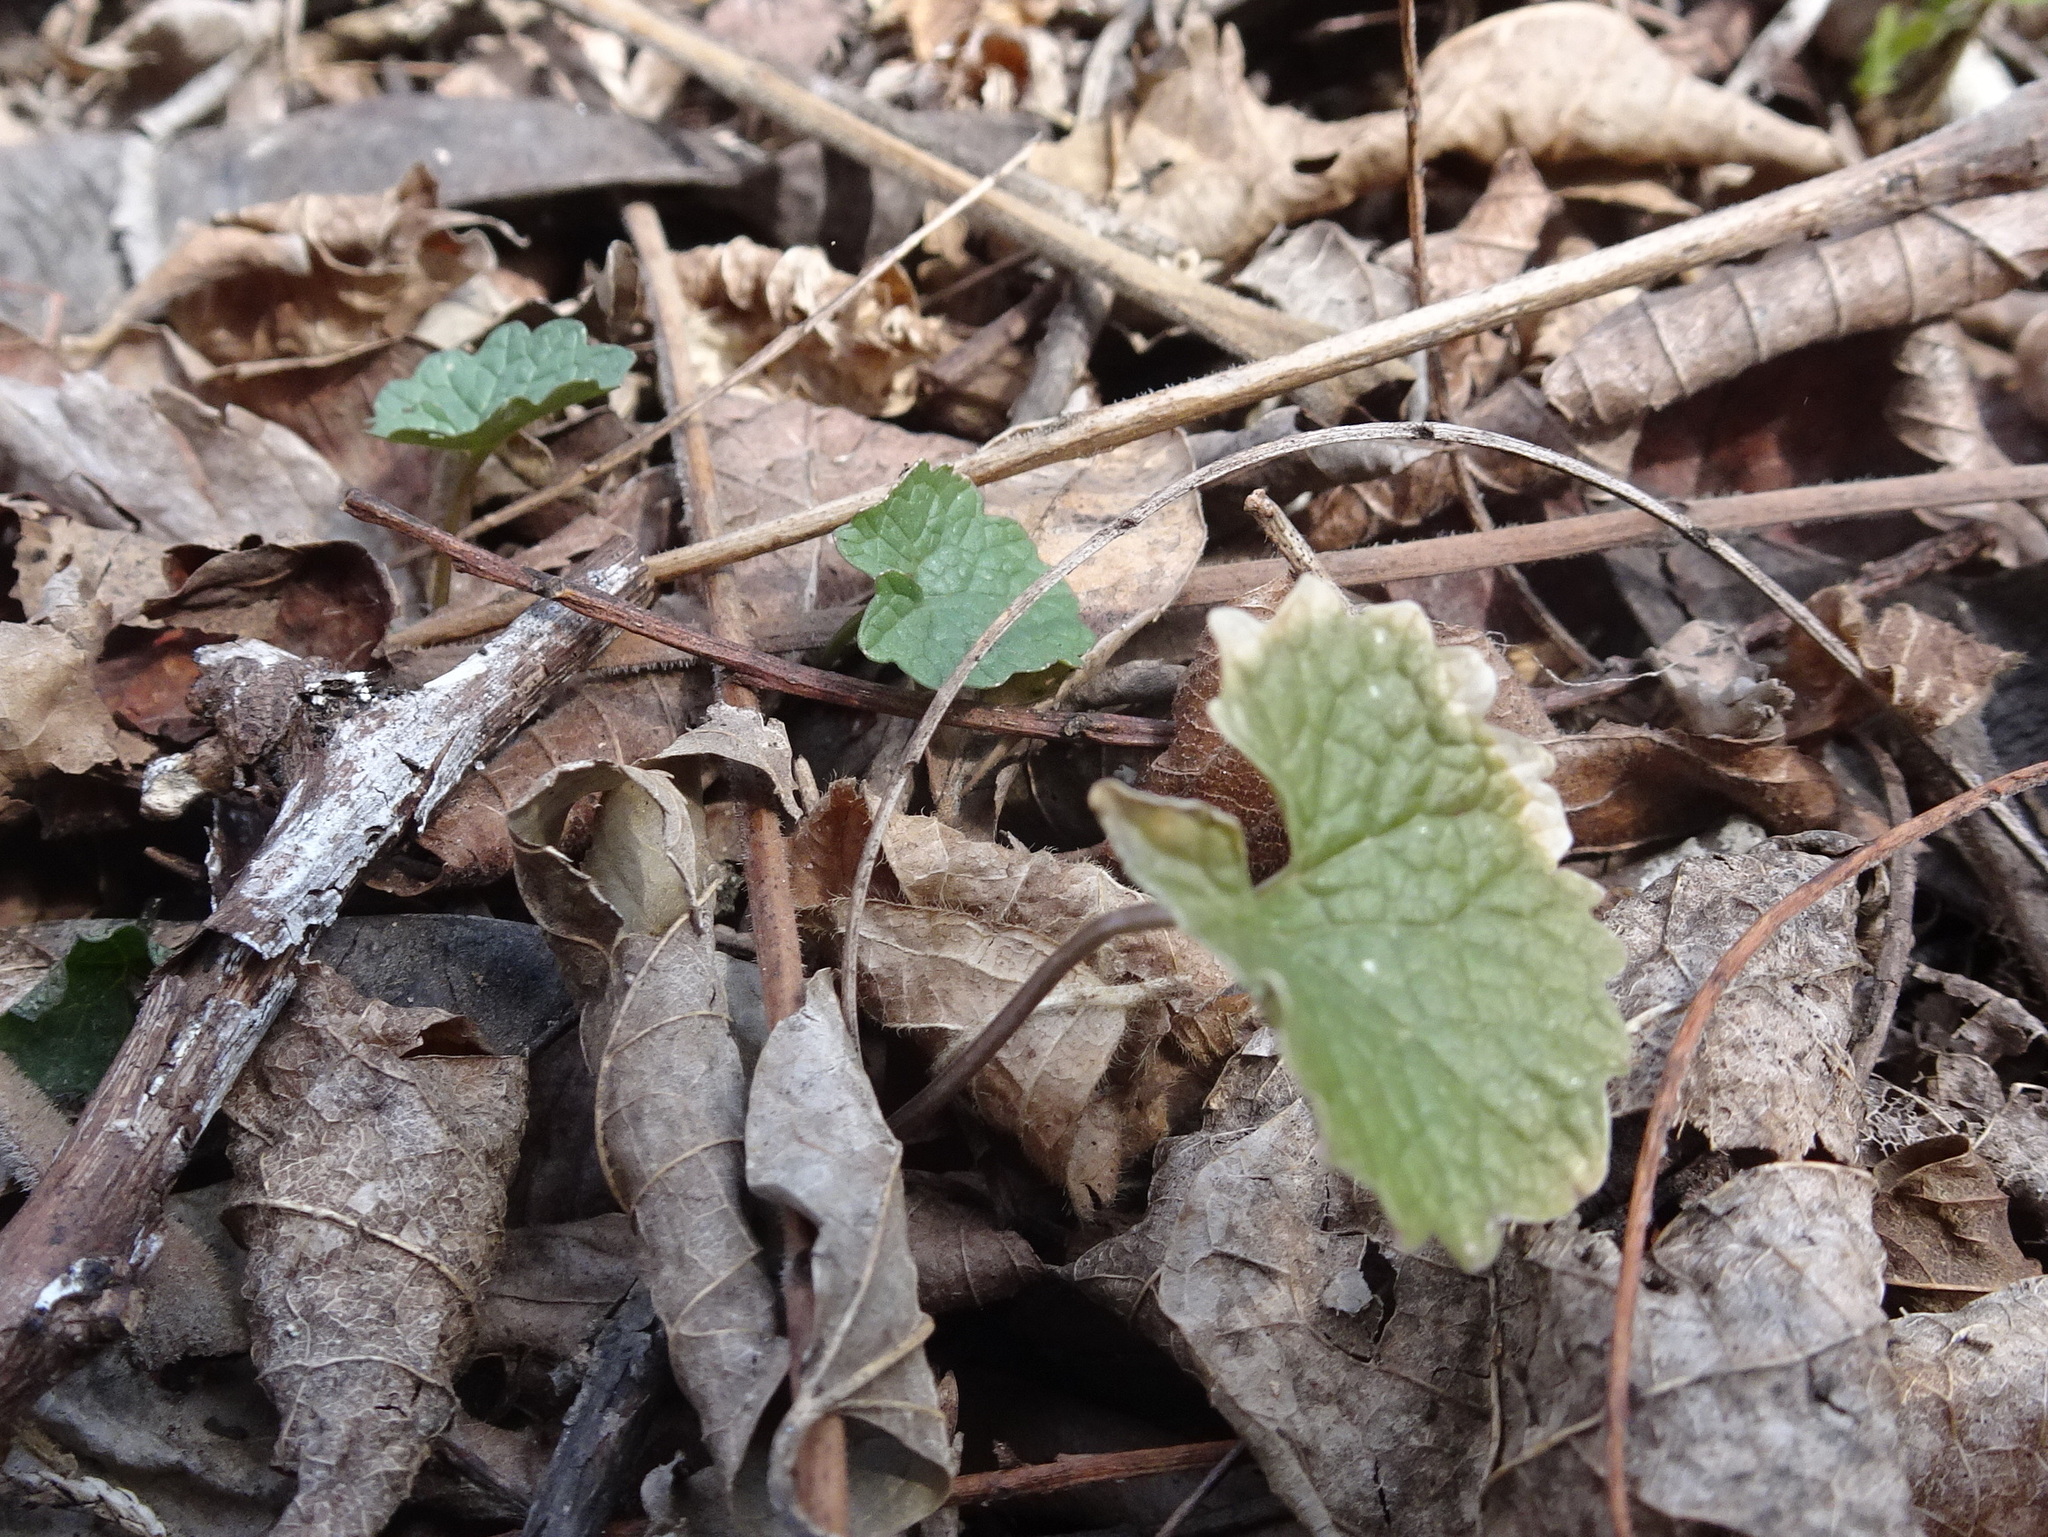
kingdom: Plantae
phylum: Tracheophyta
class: Magnoliopsida
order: Brassicales
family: Brassicaceae
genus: Alliaria
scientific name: Alliaria petiolata
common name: Garlic mustard
